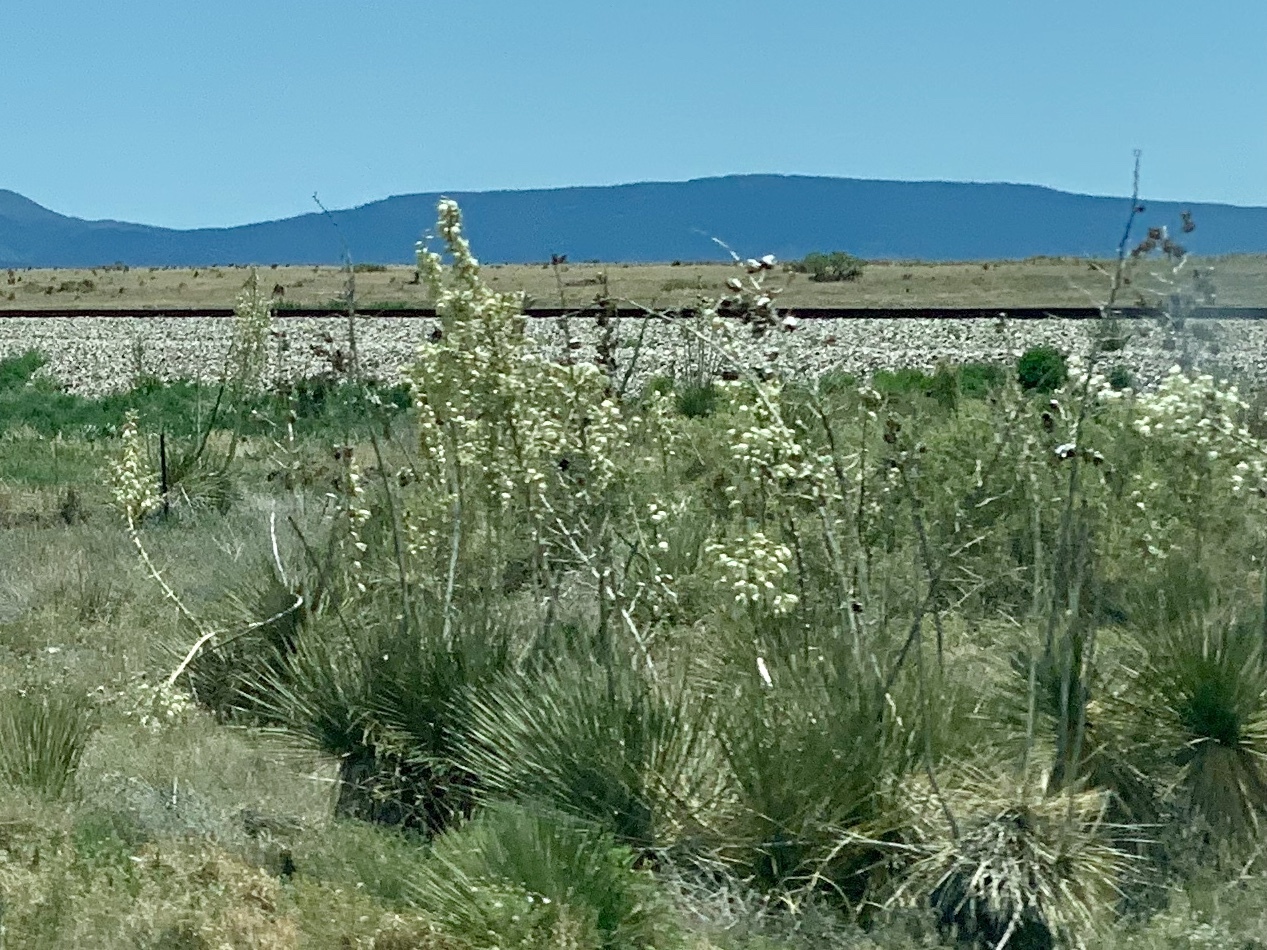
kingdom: Plantae
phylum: Tracheophyta
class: Liliopsida
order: Asparagales
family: Asparagaceae
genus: Yucca
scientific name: Yucca elata
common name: Palmella
